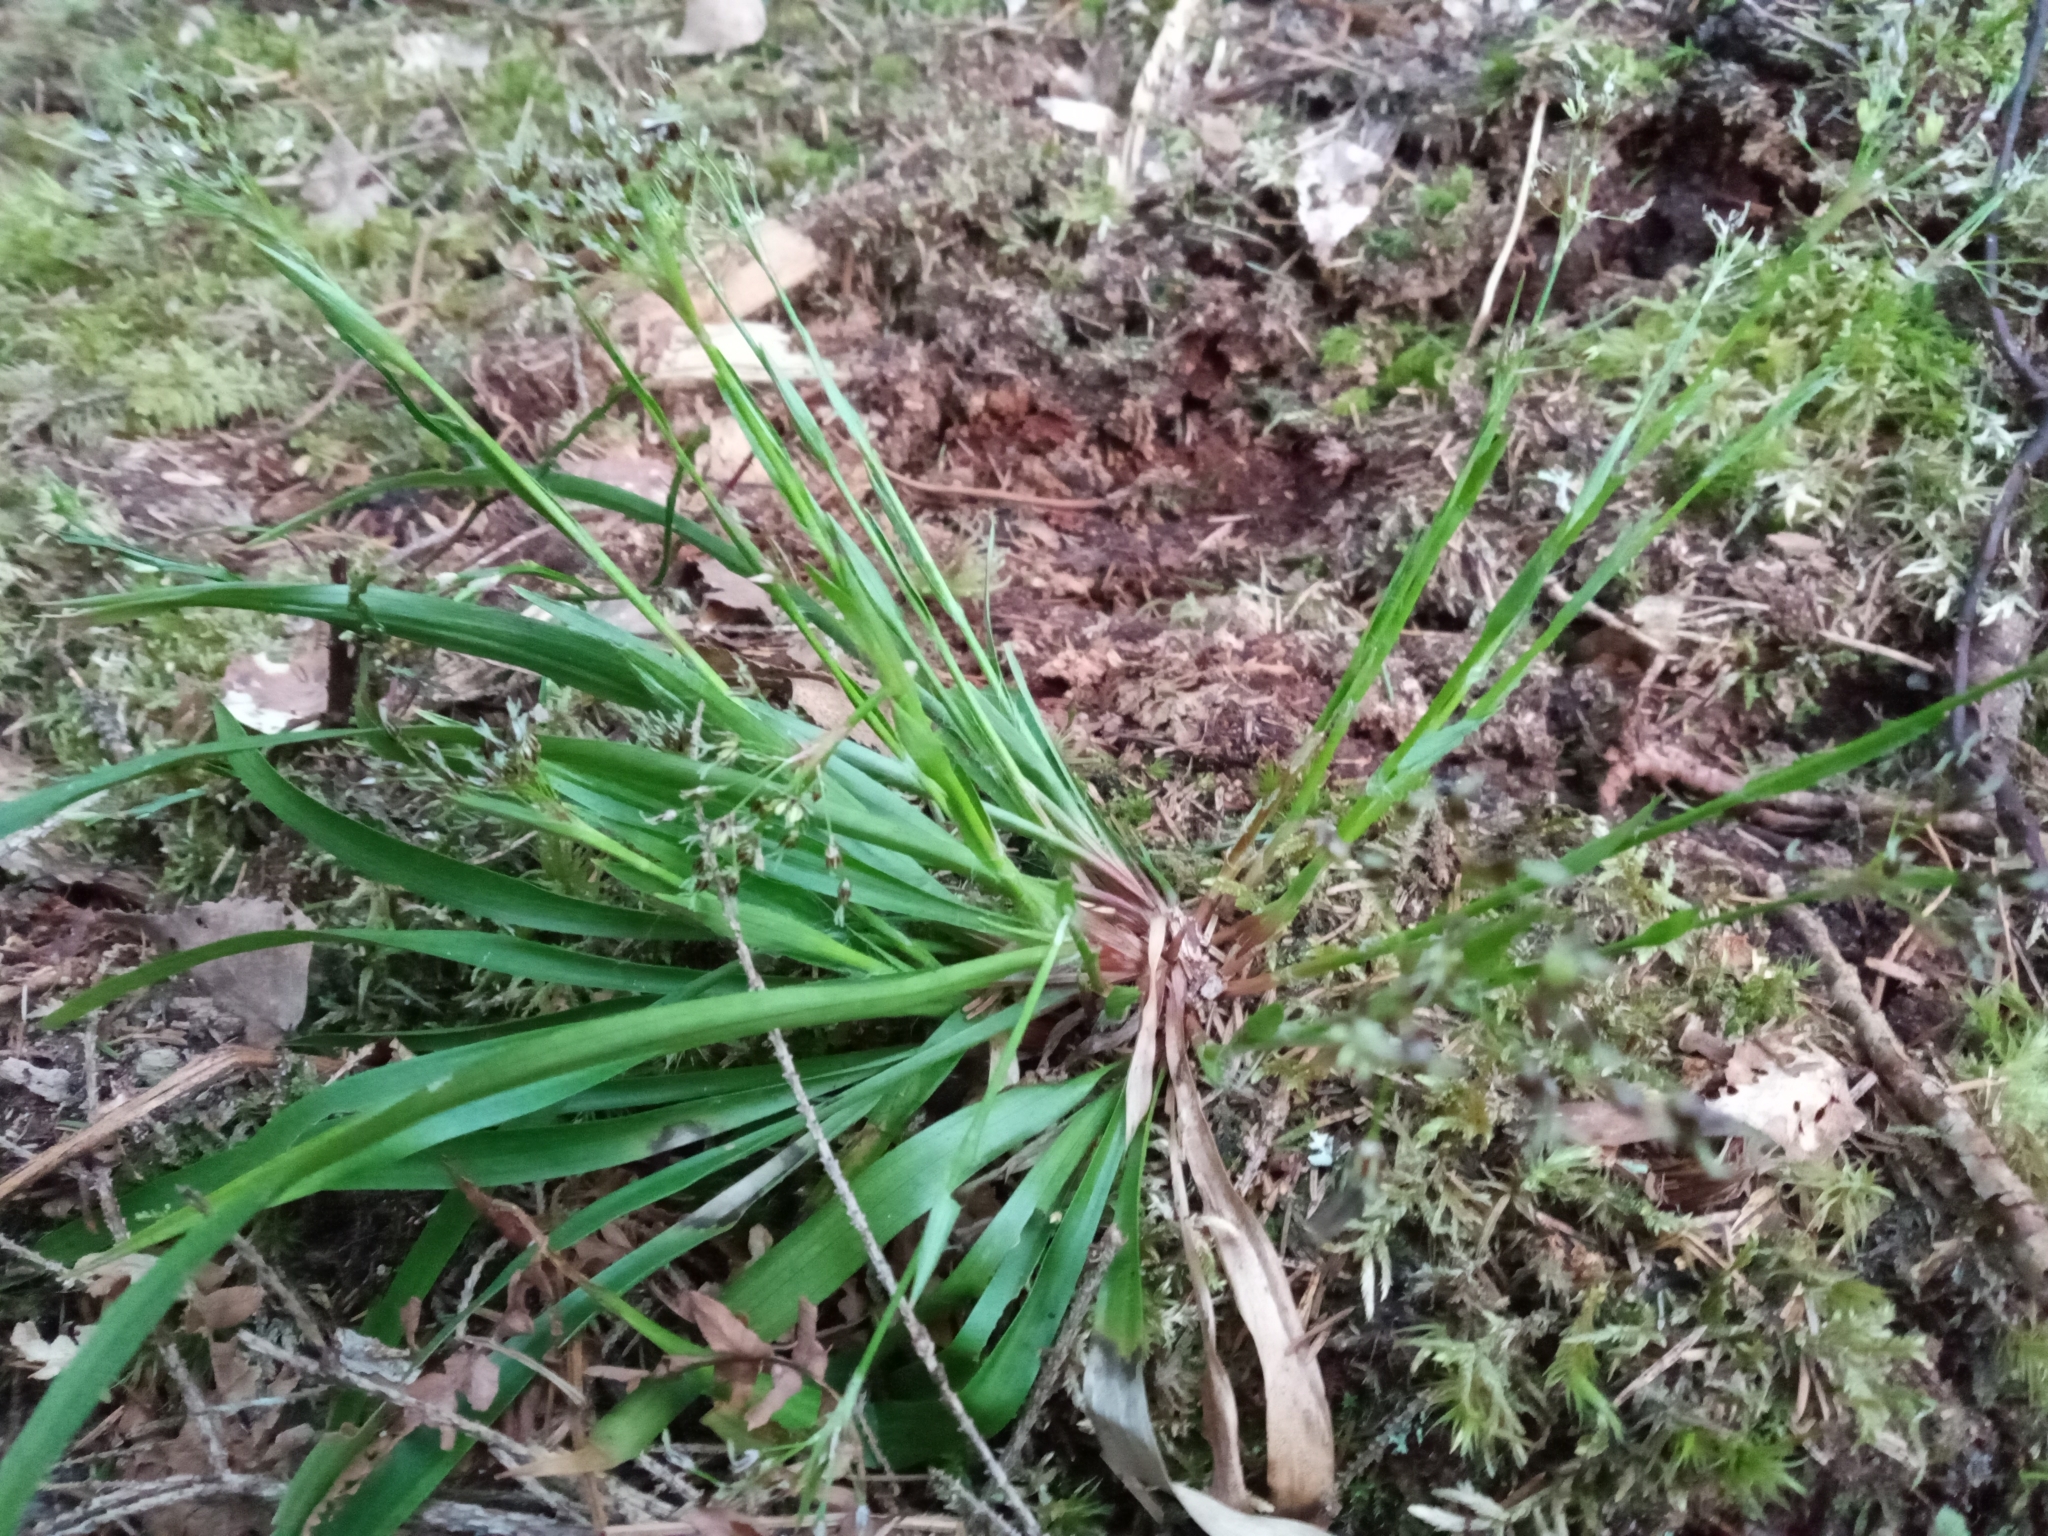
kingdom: Plantae
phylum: Tracheophyta
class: Liliopsida
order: Poales
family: Juncaceae
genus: Luzula
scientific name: Luzula pilosa
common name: Hairy wood-rush
